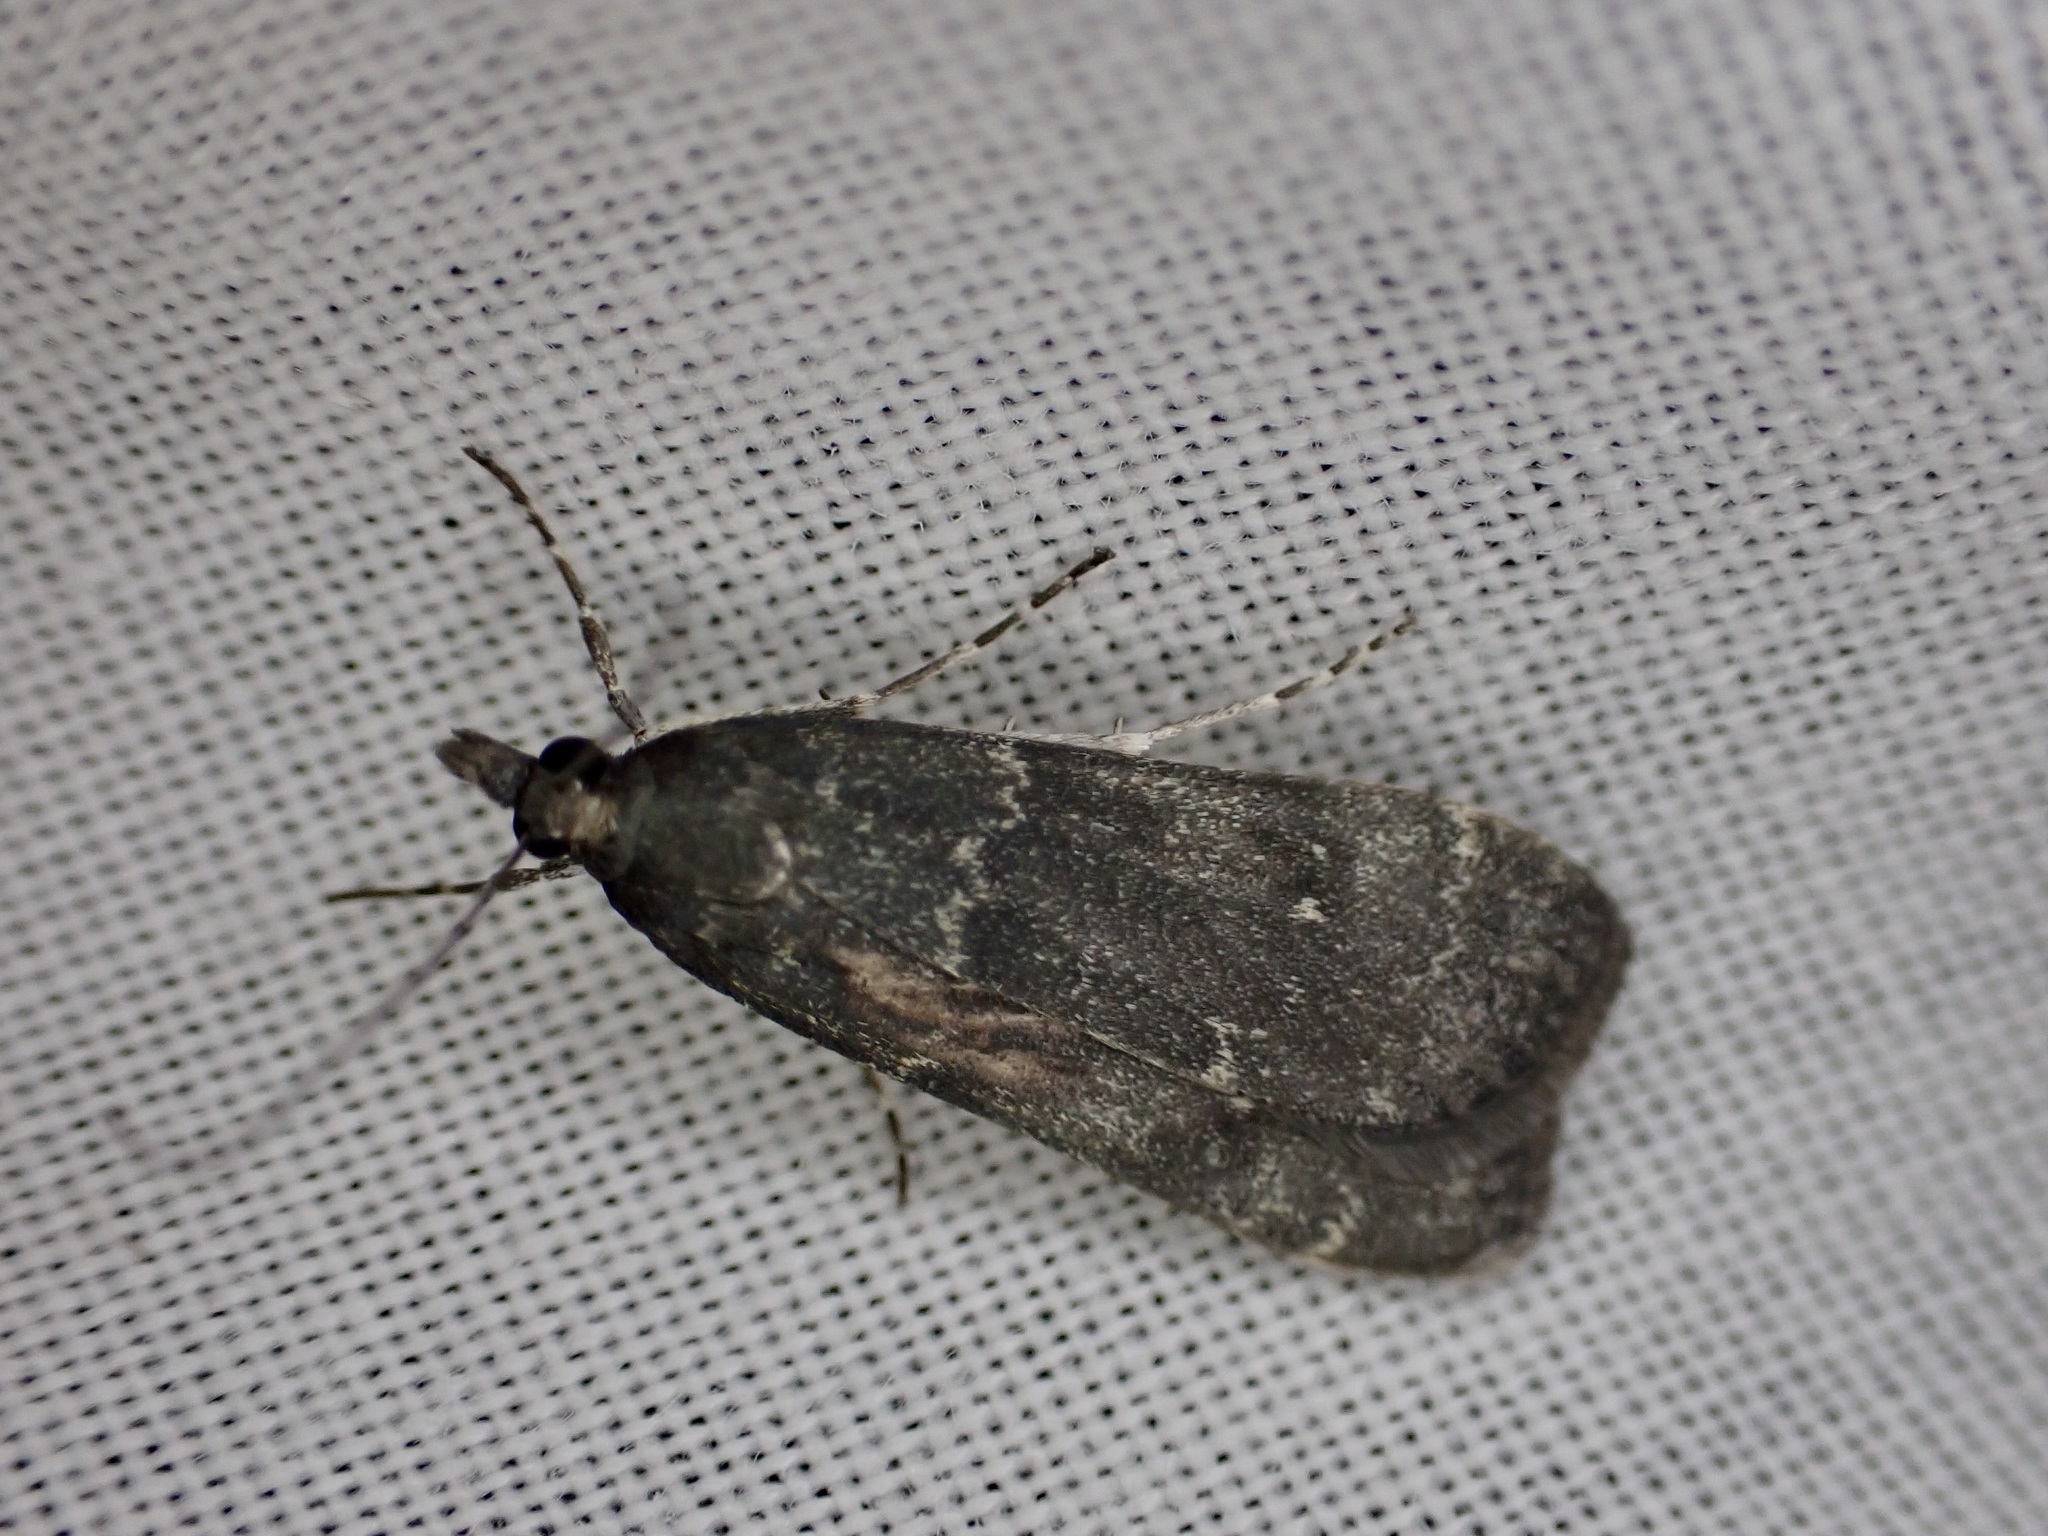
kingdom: Animalia
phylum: Arthropoda
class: Insecta
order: Lepidoptera
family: Crambidae
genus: Eudonia
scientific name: Eudonia cataxesta
